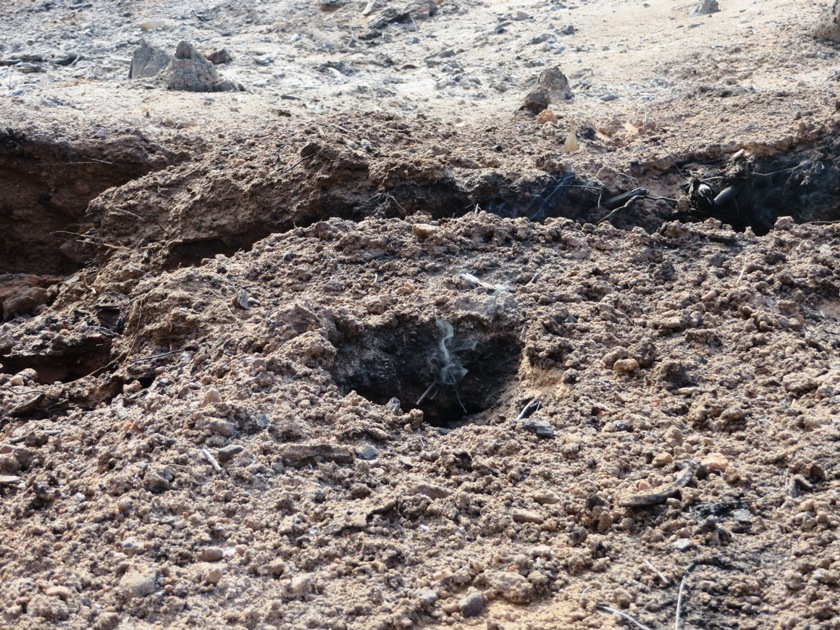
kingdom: Plantae
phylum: Tracheophyta
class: Magnoliopsida
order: Fabales
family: Fabaceae
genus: Acacia
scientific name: Acacia elata
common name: Cedar wattle
